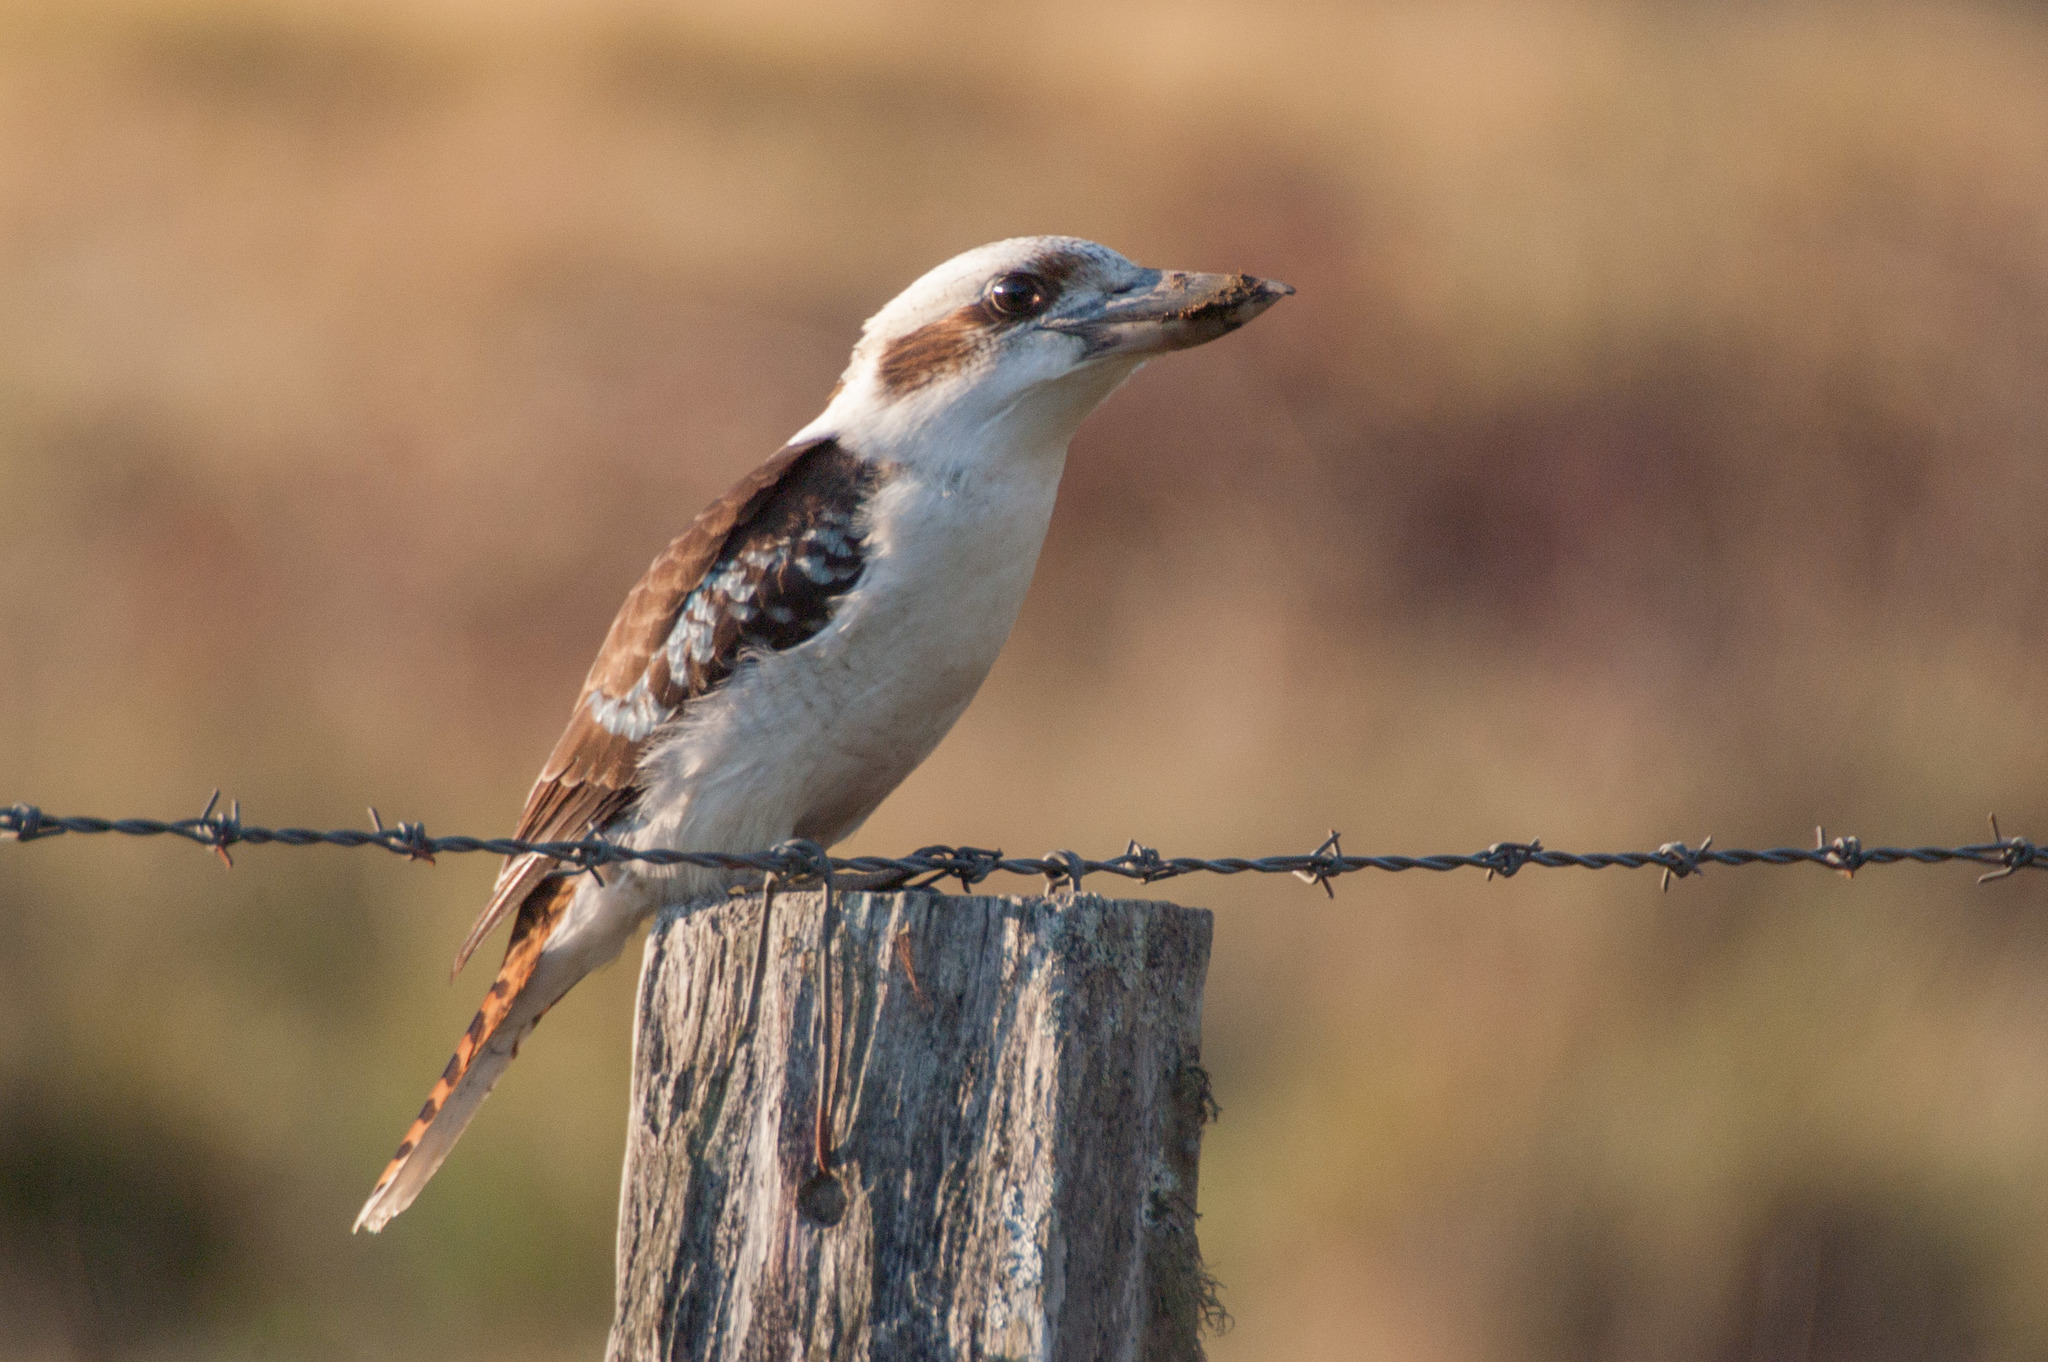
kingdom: Animalia
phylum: Chordata
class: Aves
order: Coraciiformes
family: Alcedinidae
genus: Dacelo
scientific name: Dacelo novaeguineae
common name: Laughing kookaburra
